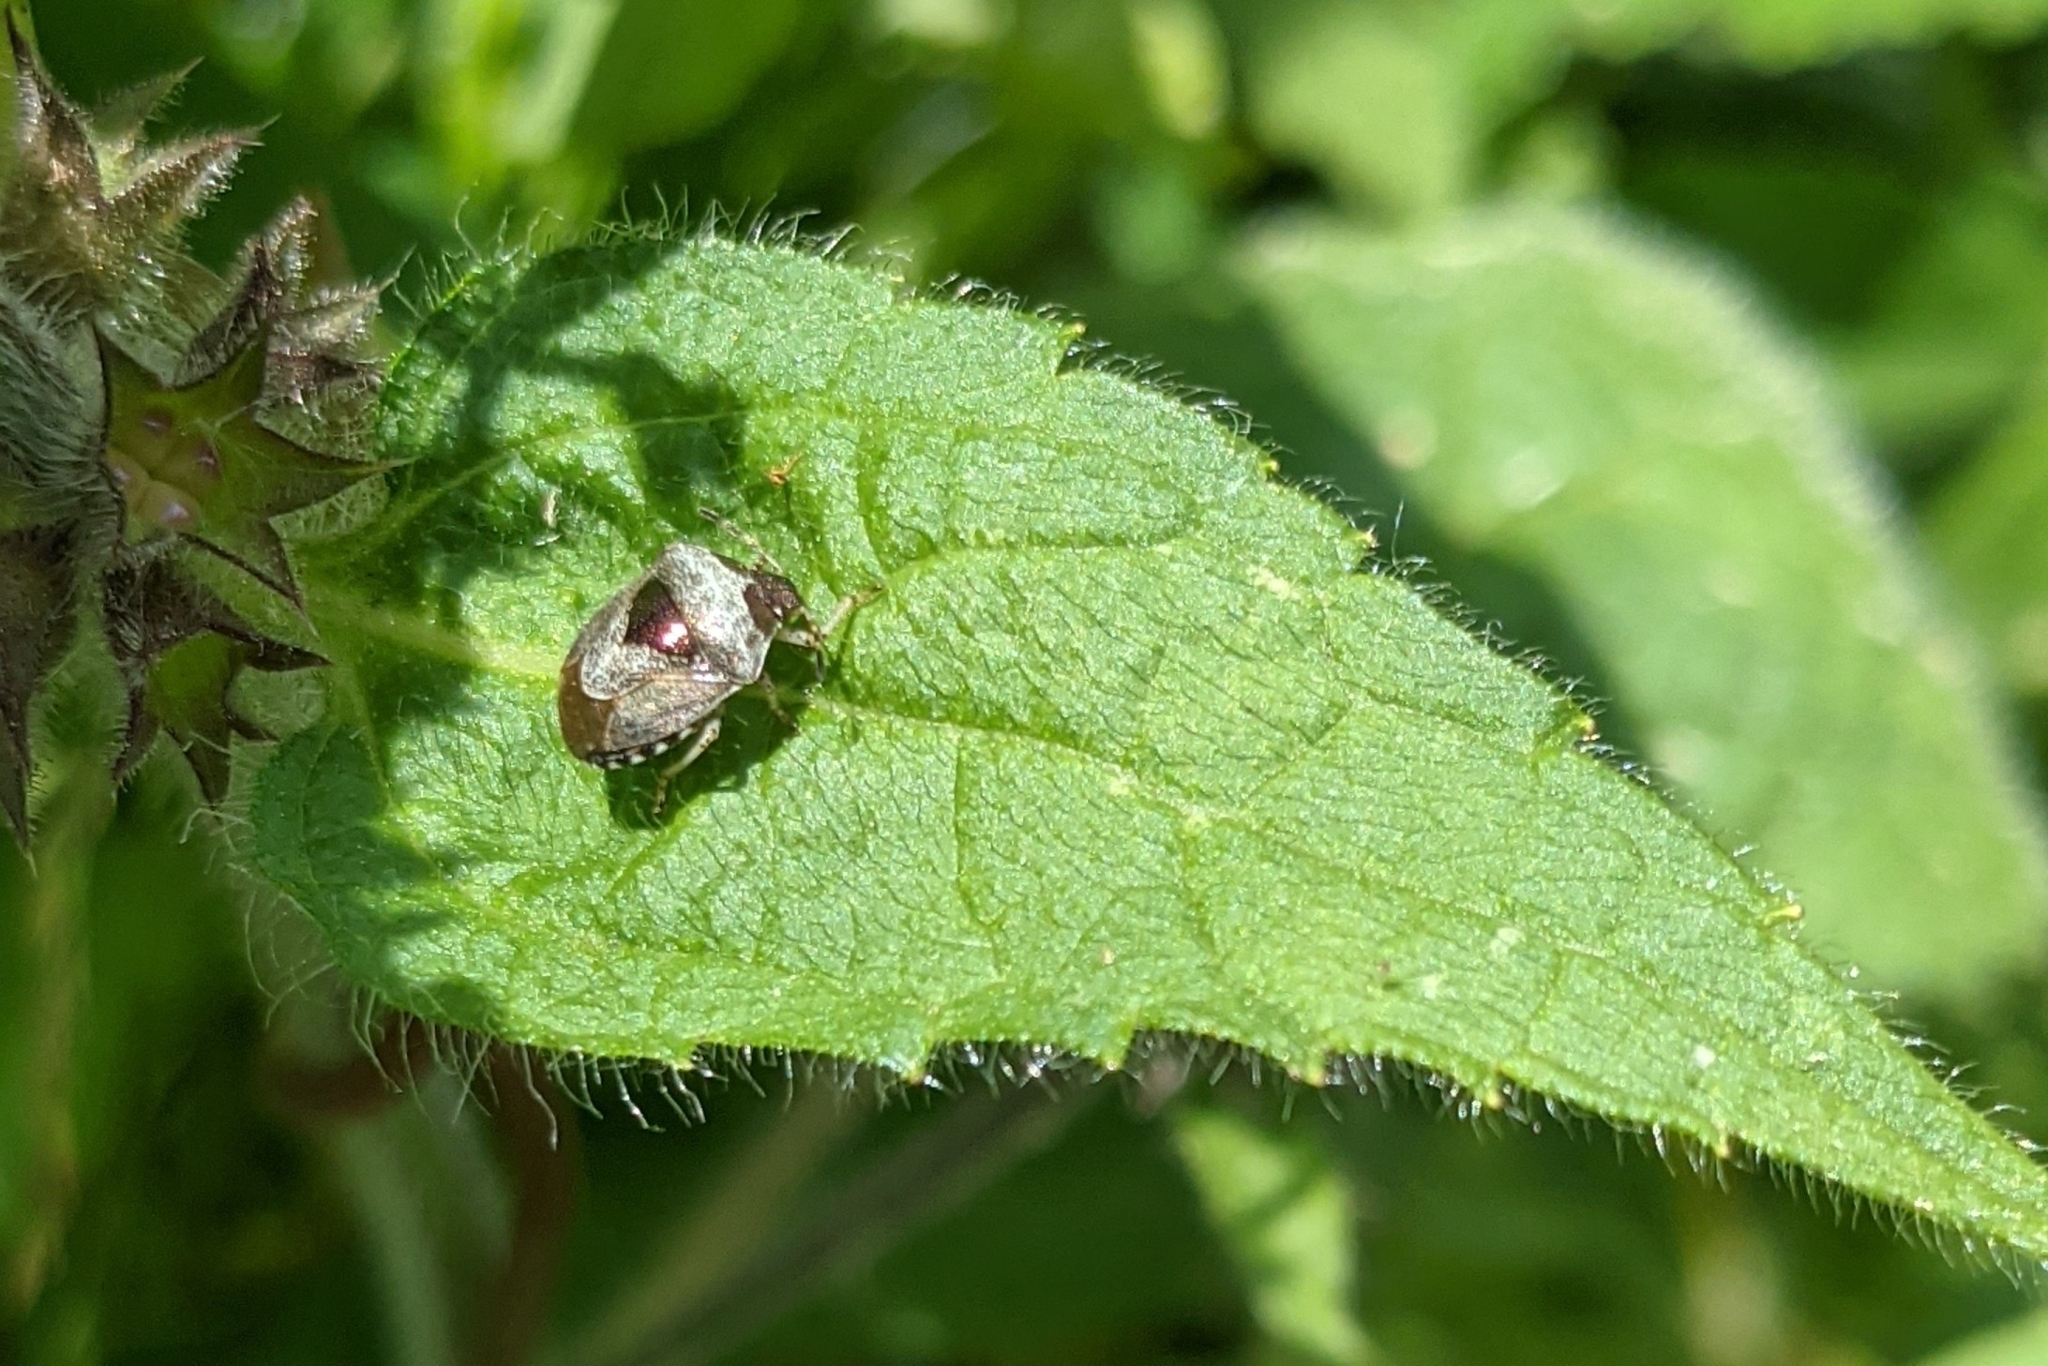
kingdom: Animalia
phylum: Arthropoda
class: Insecta
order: Hemiptera
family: Pentatomidae
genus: Eysarcoris
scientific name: Eysarcoris venustissimus
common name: Woundwort shieldbug
